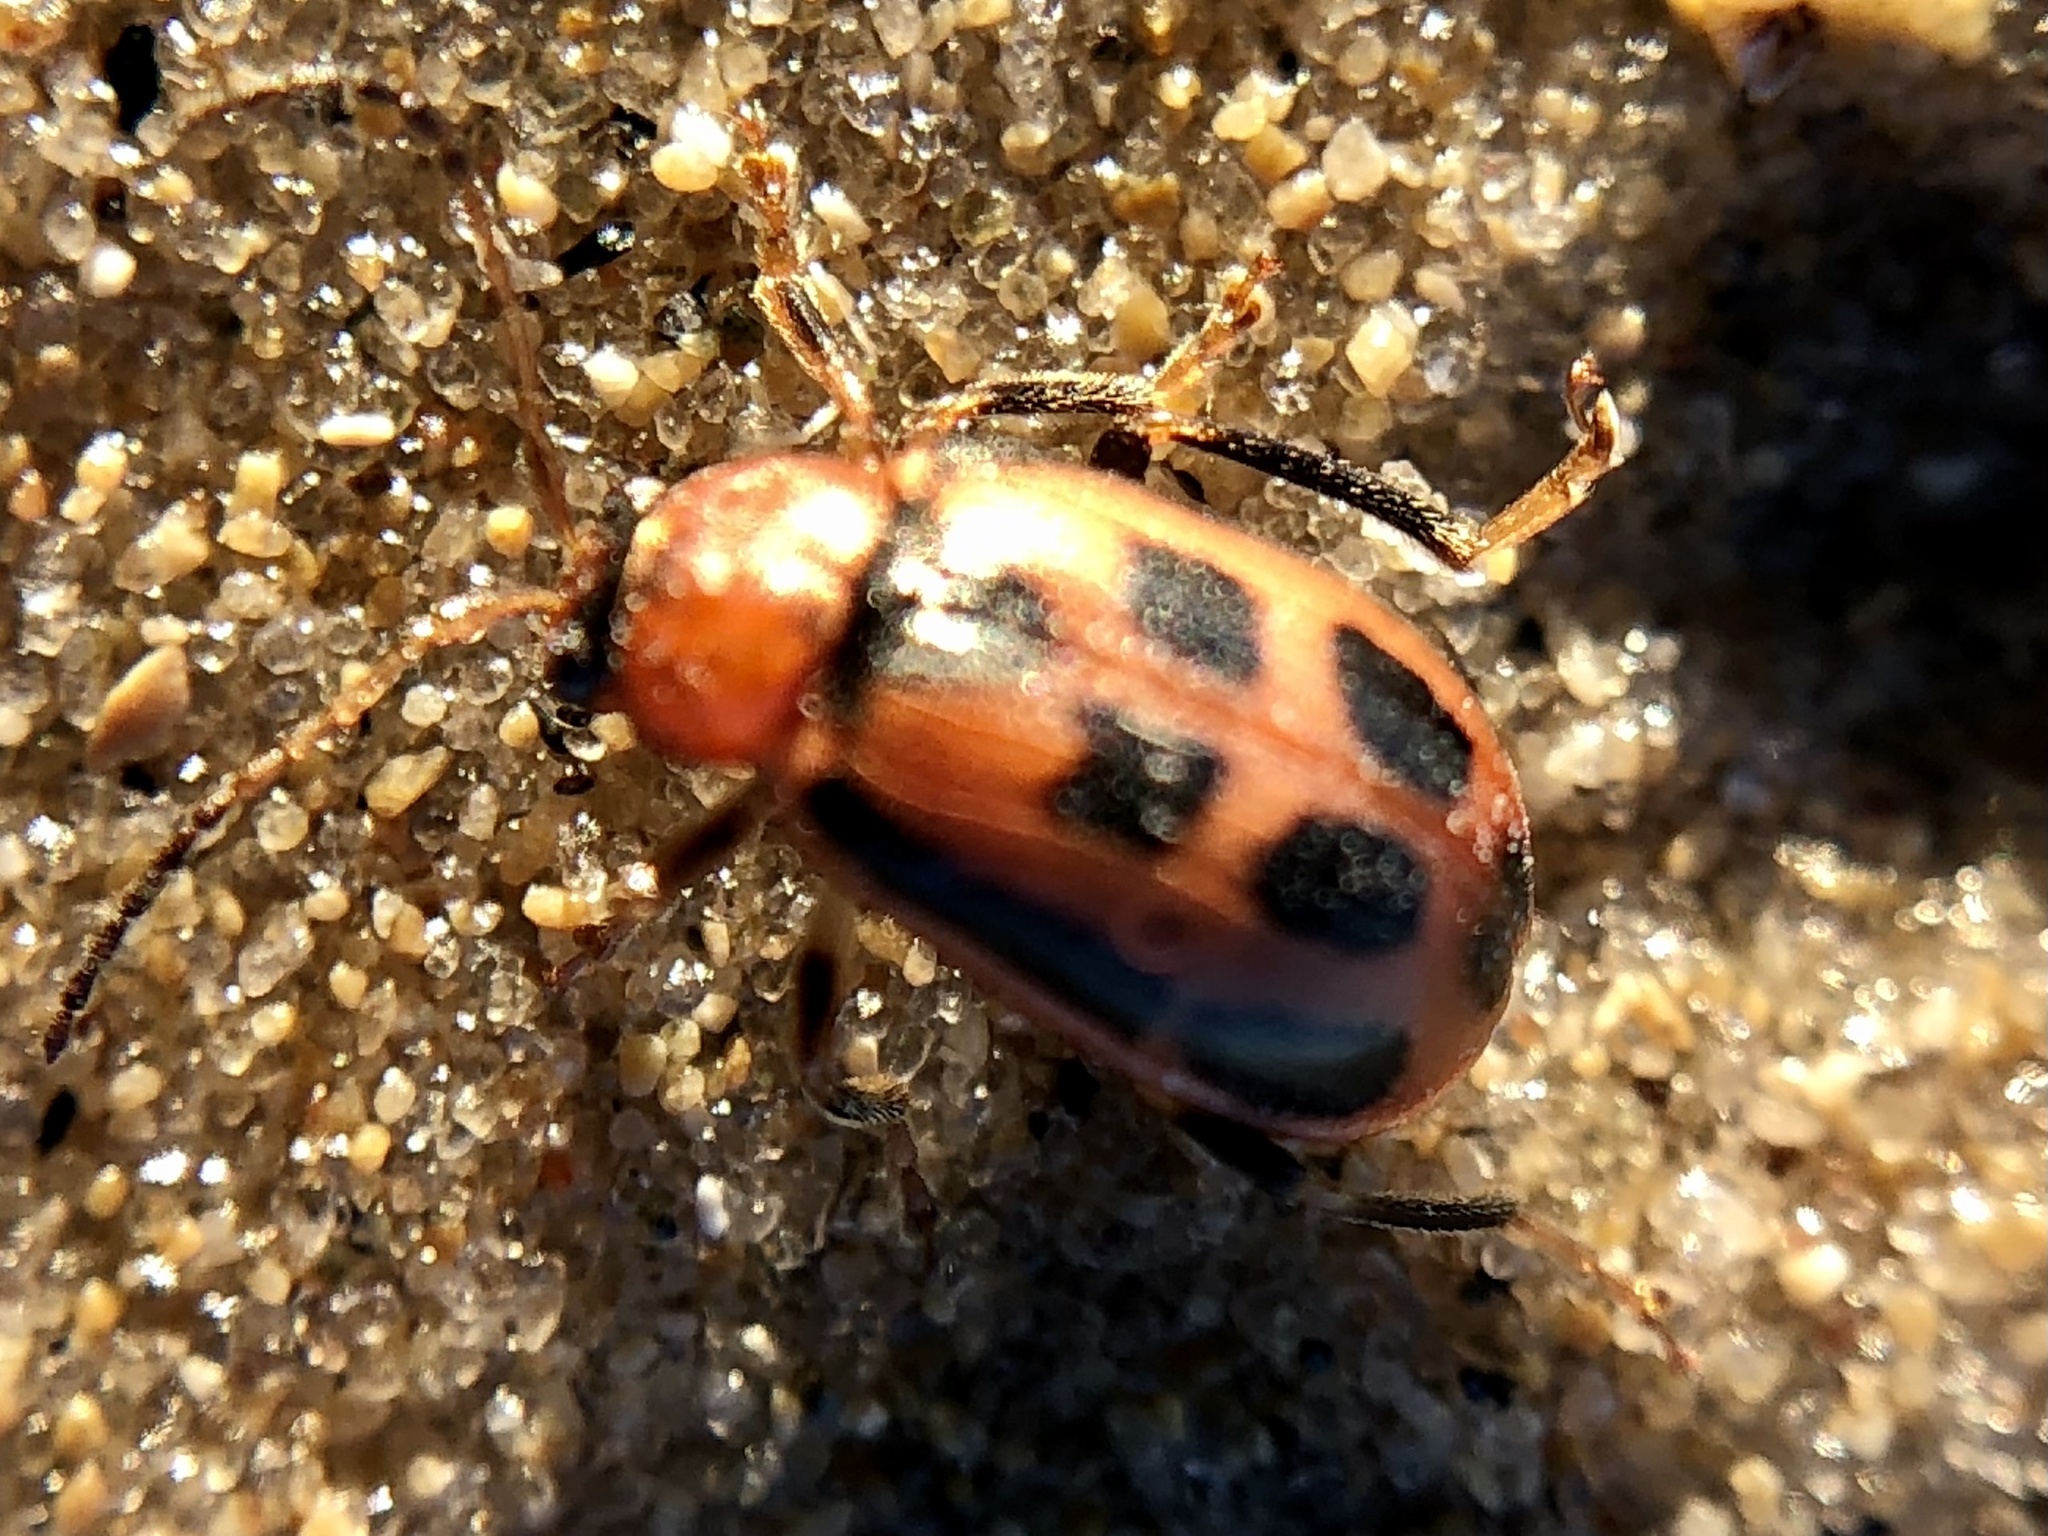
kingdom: Animalia
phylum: Arthropoda
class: Insecta
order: Coleoptera
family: Chrysomelidae
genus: Cerotoma
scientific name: Cerotoma trifurcata
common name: Bean leaf beetle
